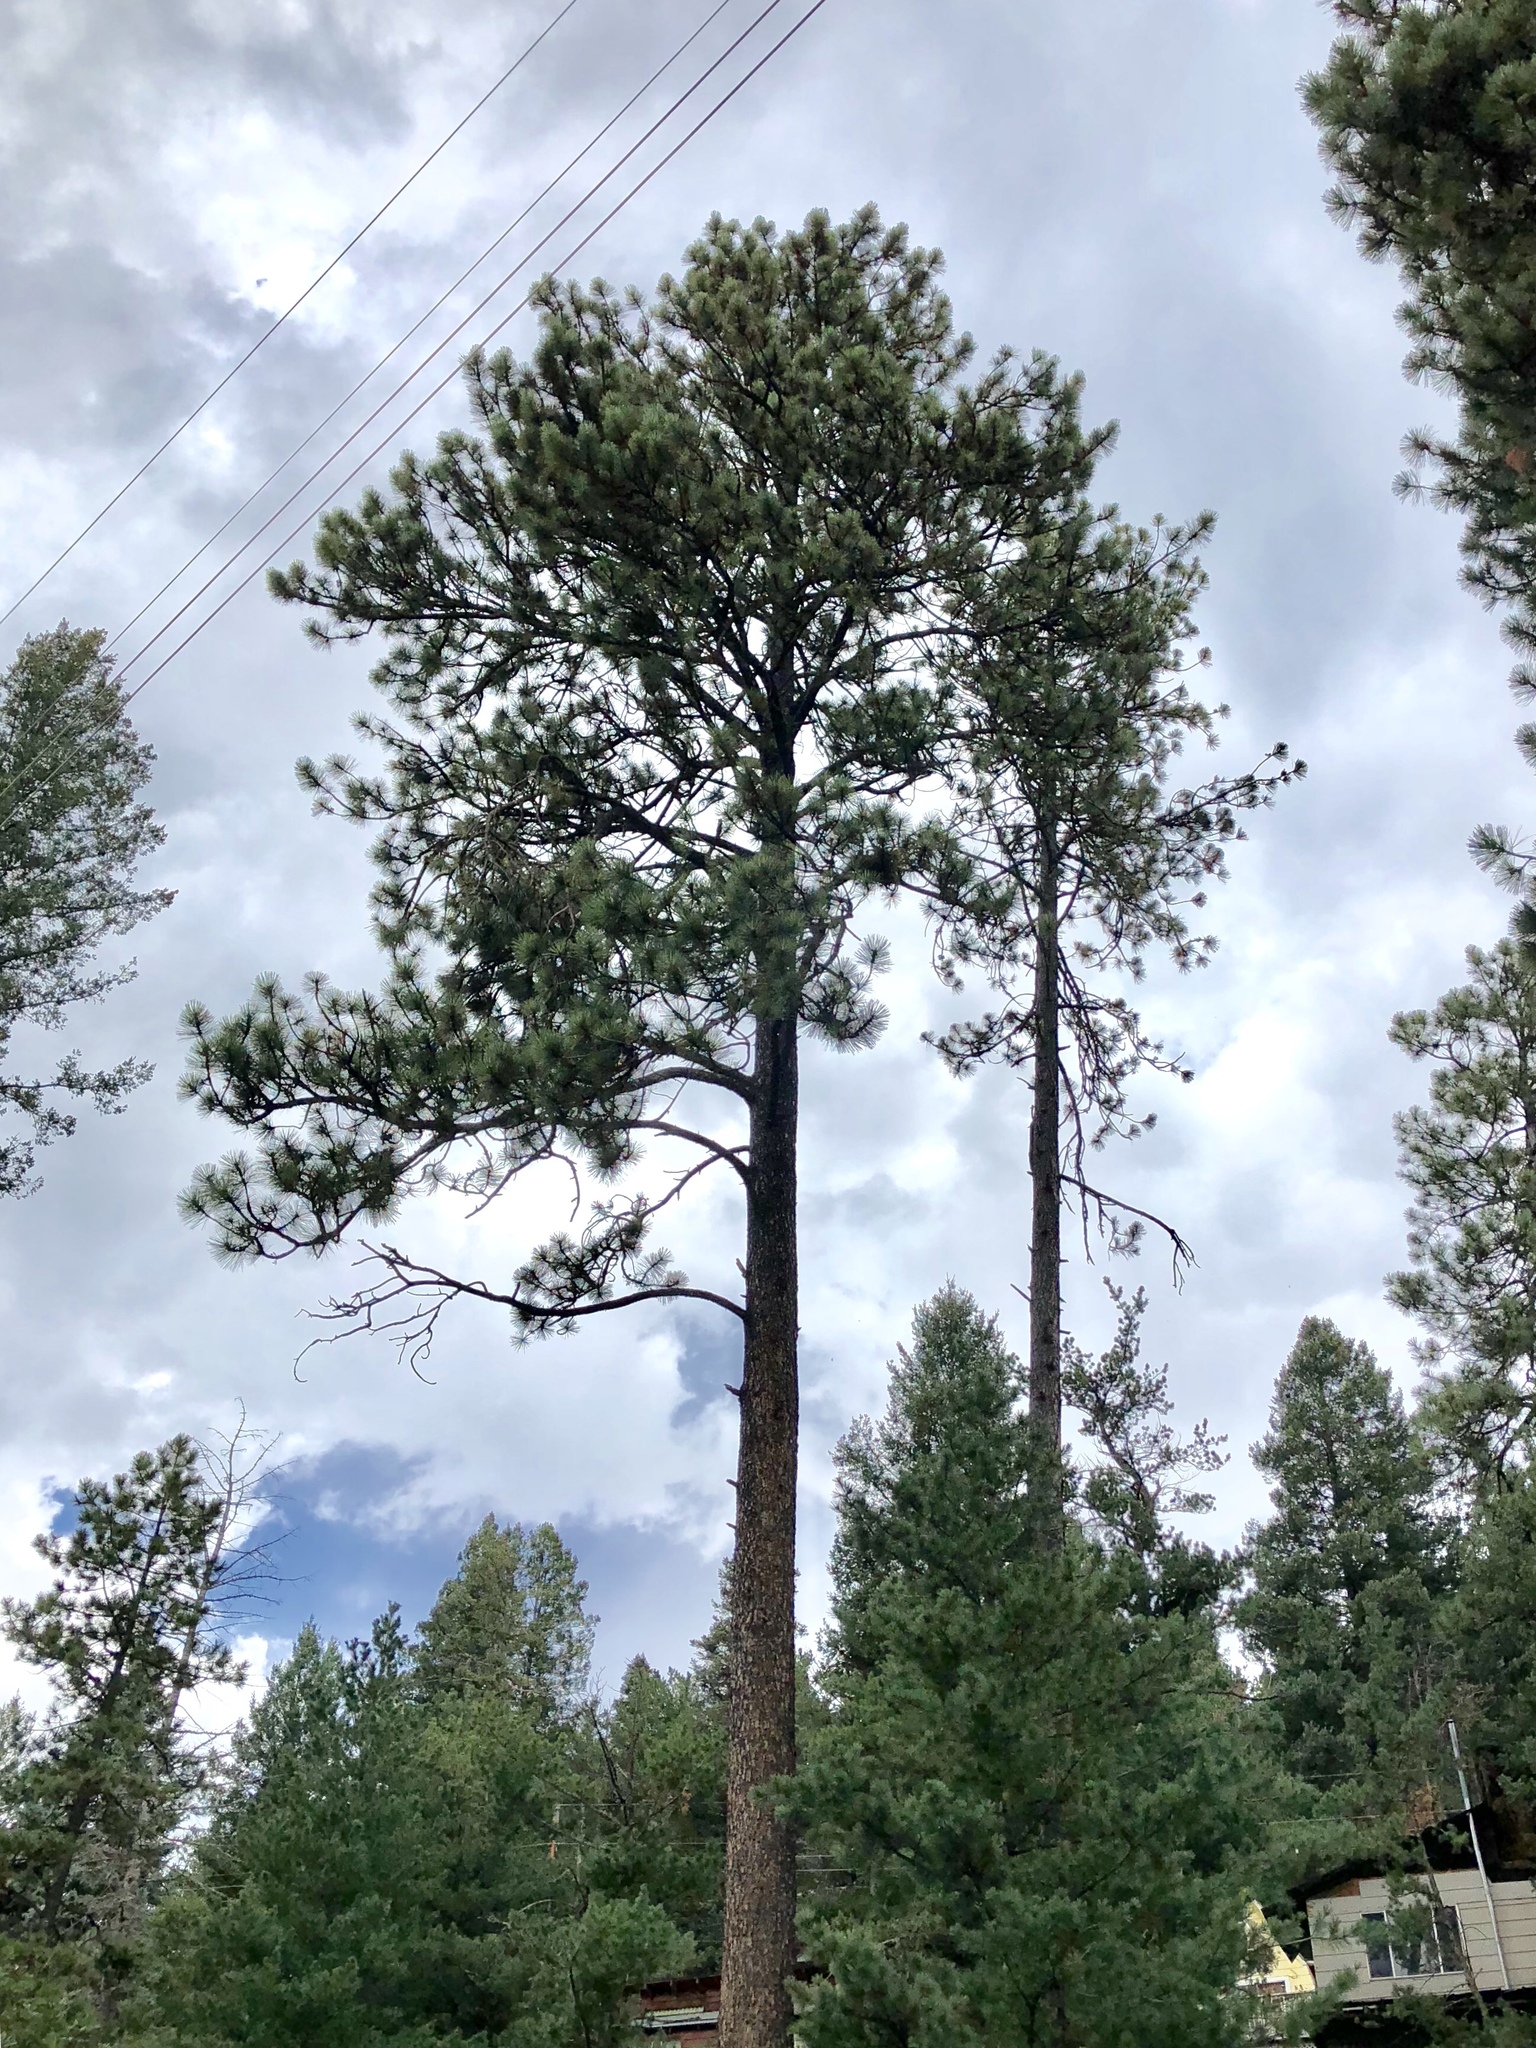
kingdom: Plantae
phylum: Tracheophyta
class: Pinopsida
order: Pinales
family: Pinaceae
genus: Pinus
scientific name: Pinus ponderosa
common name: Western yellow-pine
